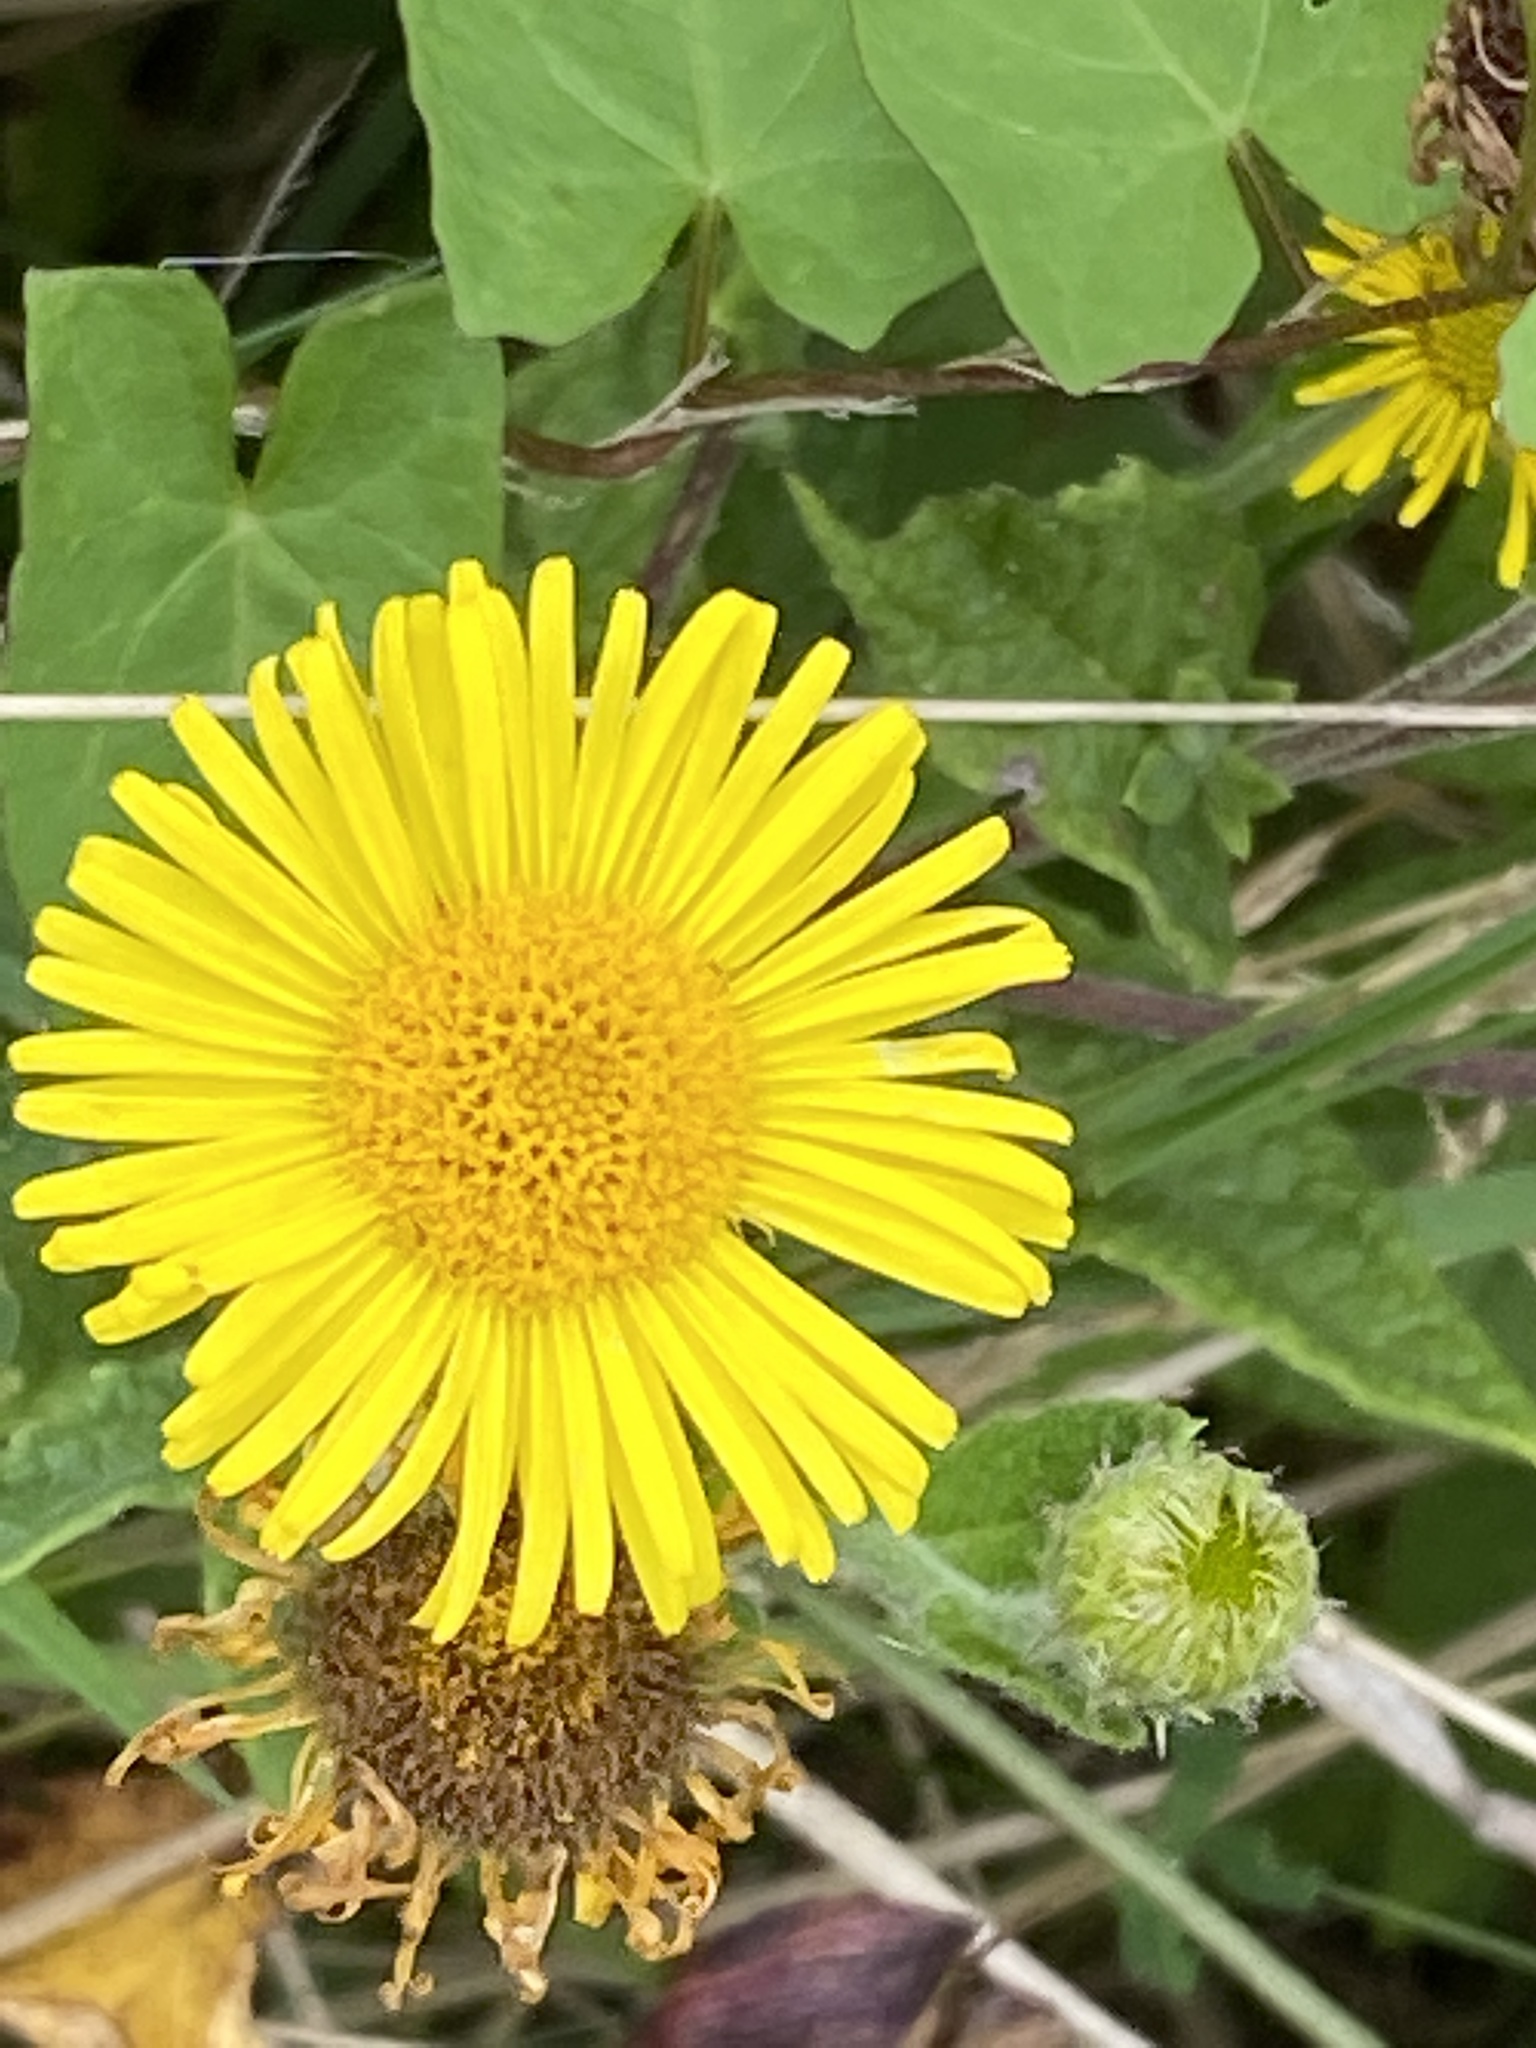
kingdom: Plantae
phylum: Tracheophyta
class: Magnoliopsida
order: Asterales
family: Asteraceae
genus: Pulicaria
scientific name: Pulicaria dysenterica
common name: Common fleabane
